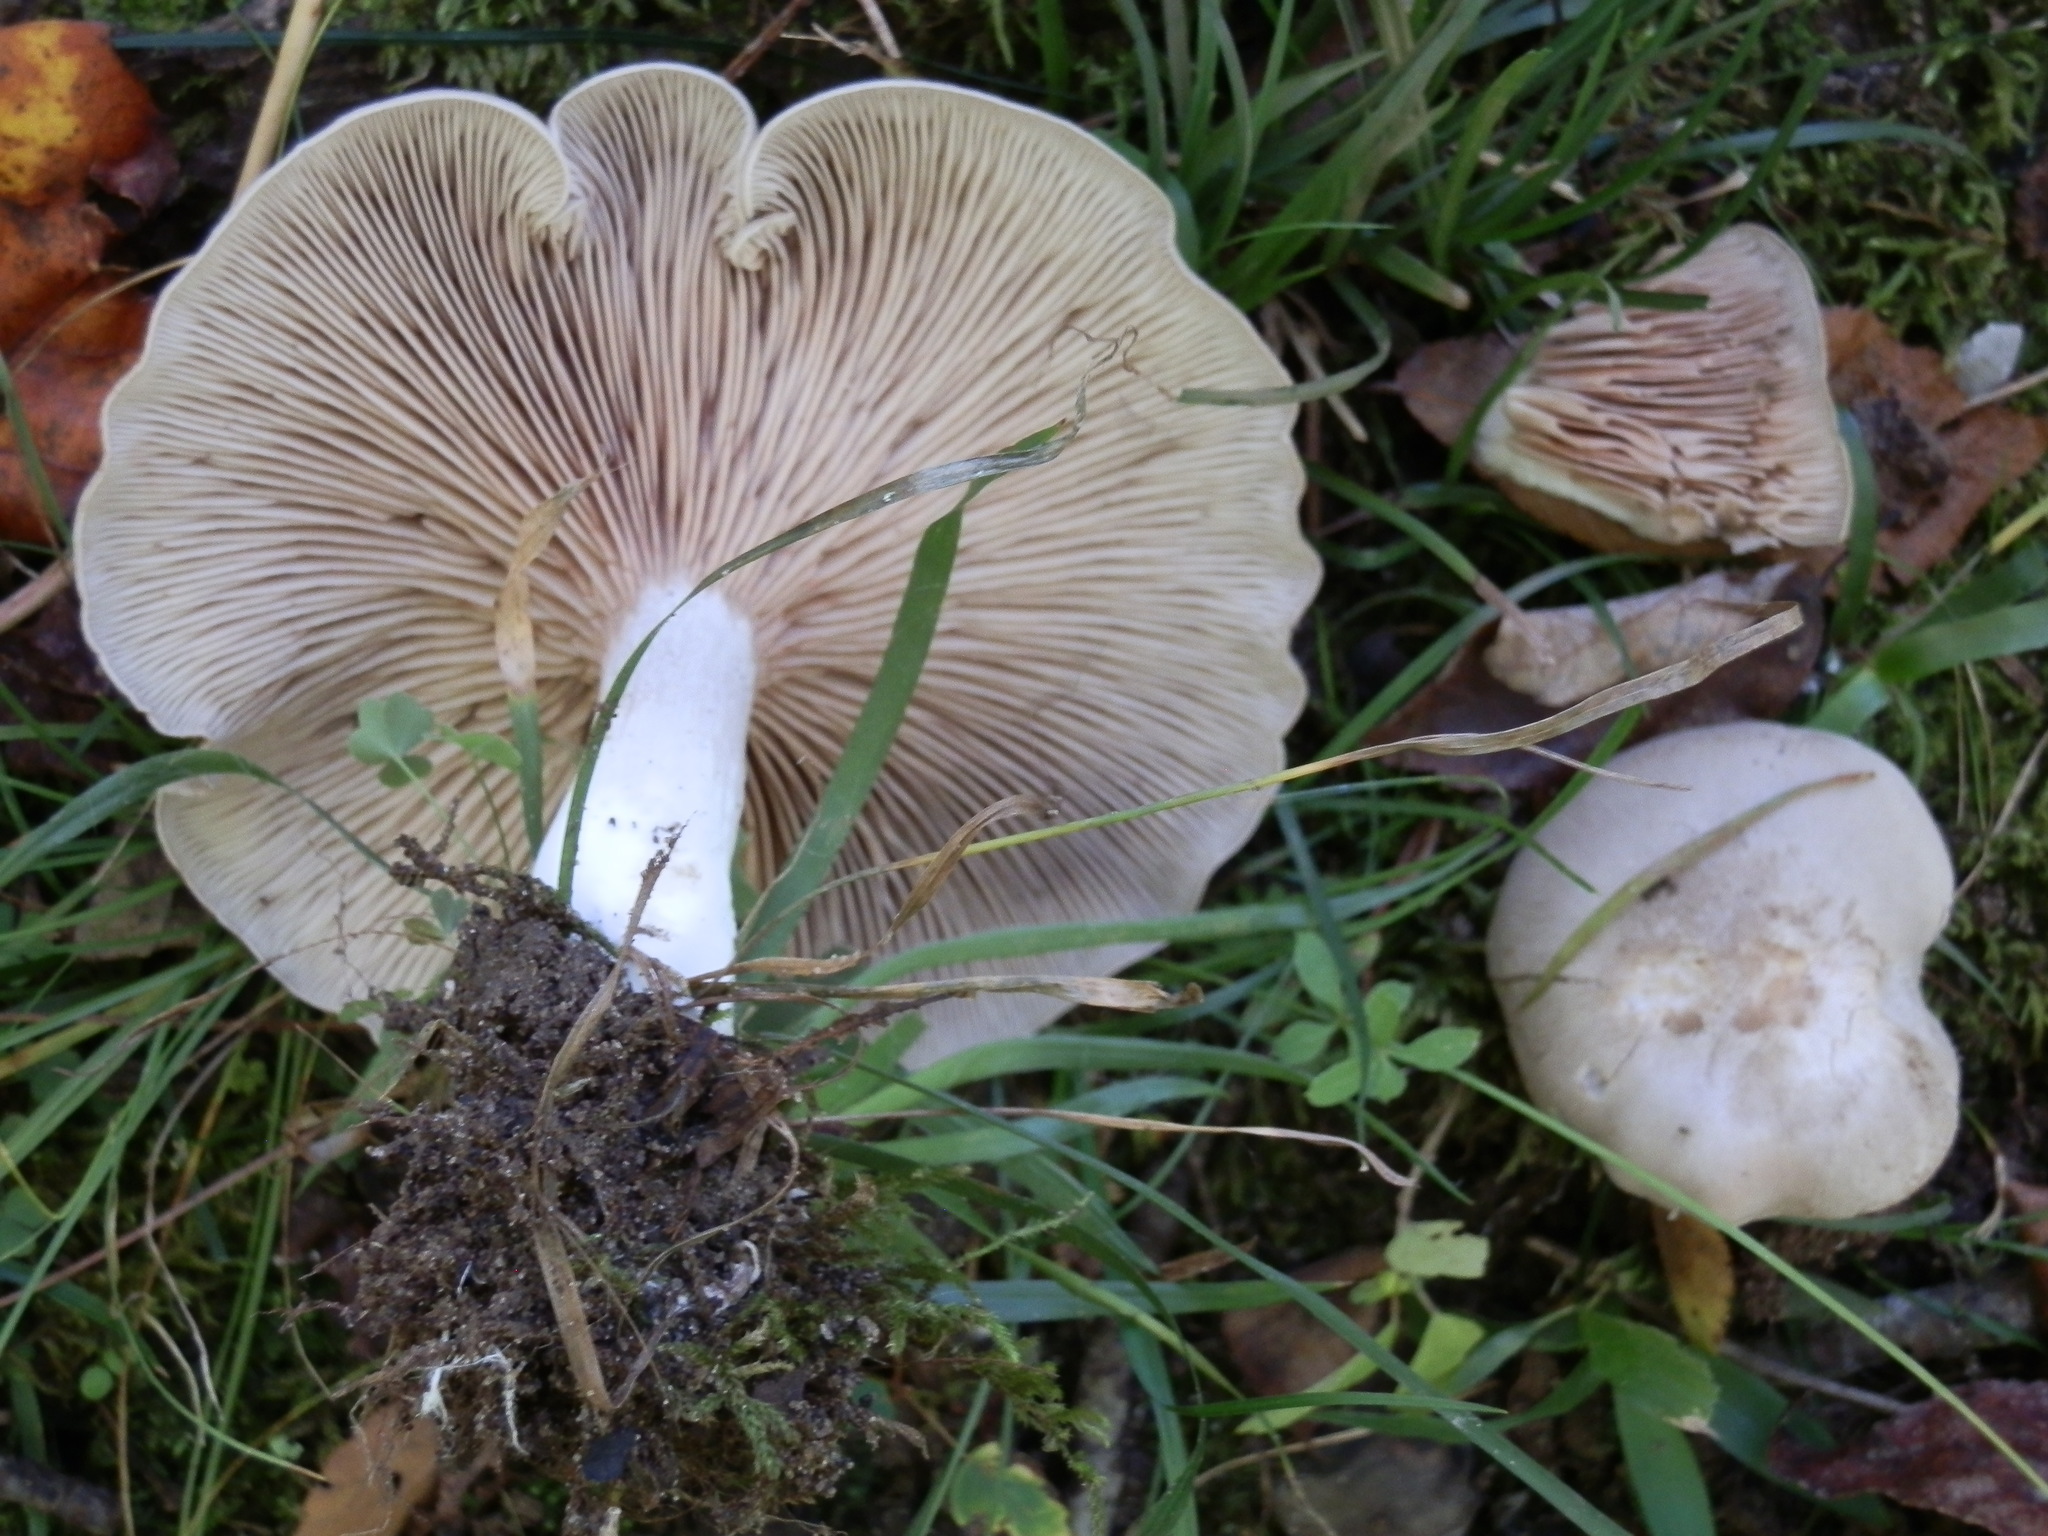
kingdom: Fungi
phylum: Basidiomycota
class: Agaricomycetes
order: Agaricales
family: Entolomataceae
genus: Entoloma
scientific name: Entoloma abortivum
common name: Aborted entoloma
